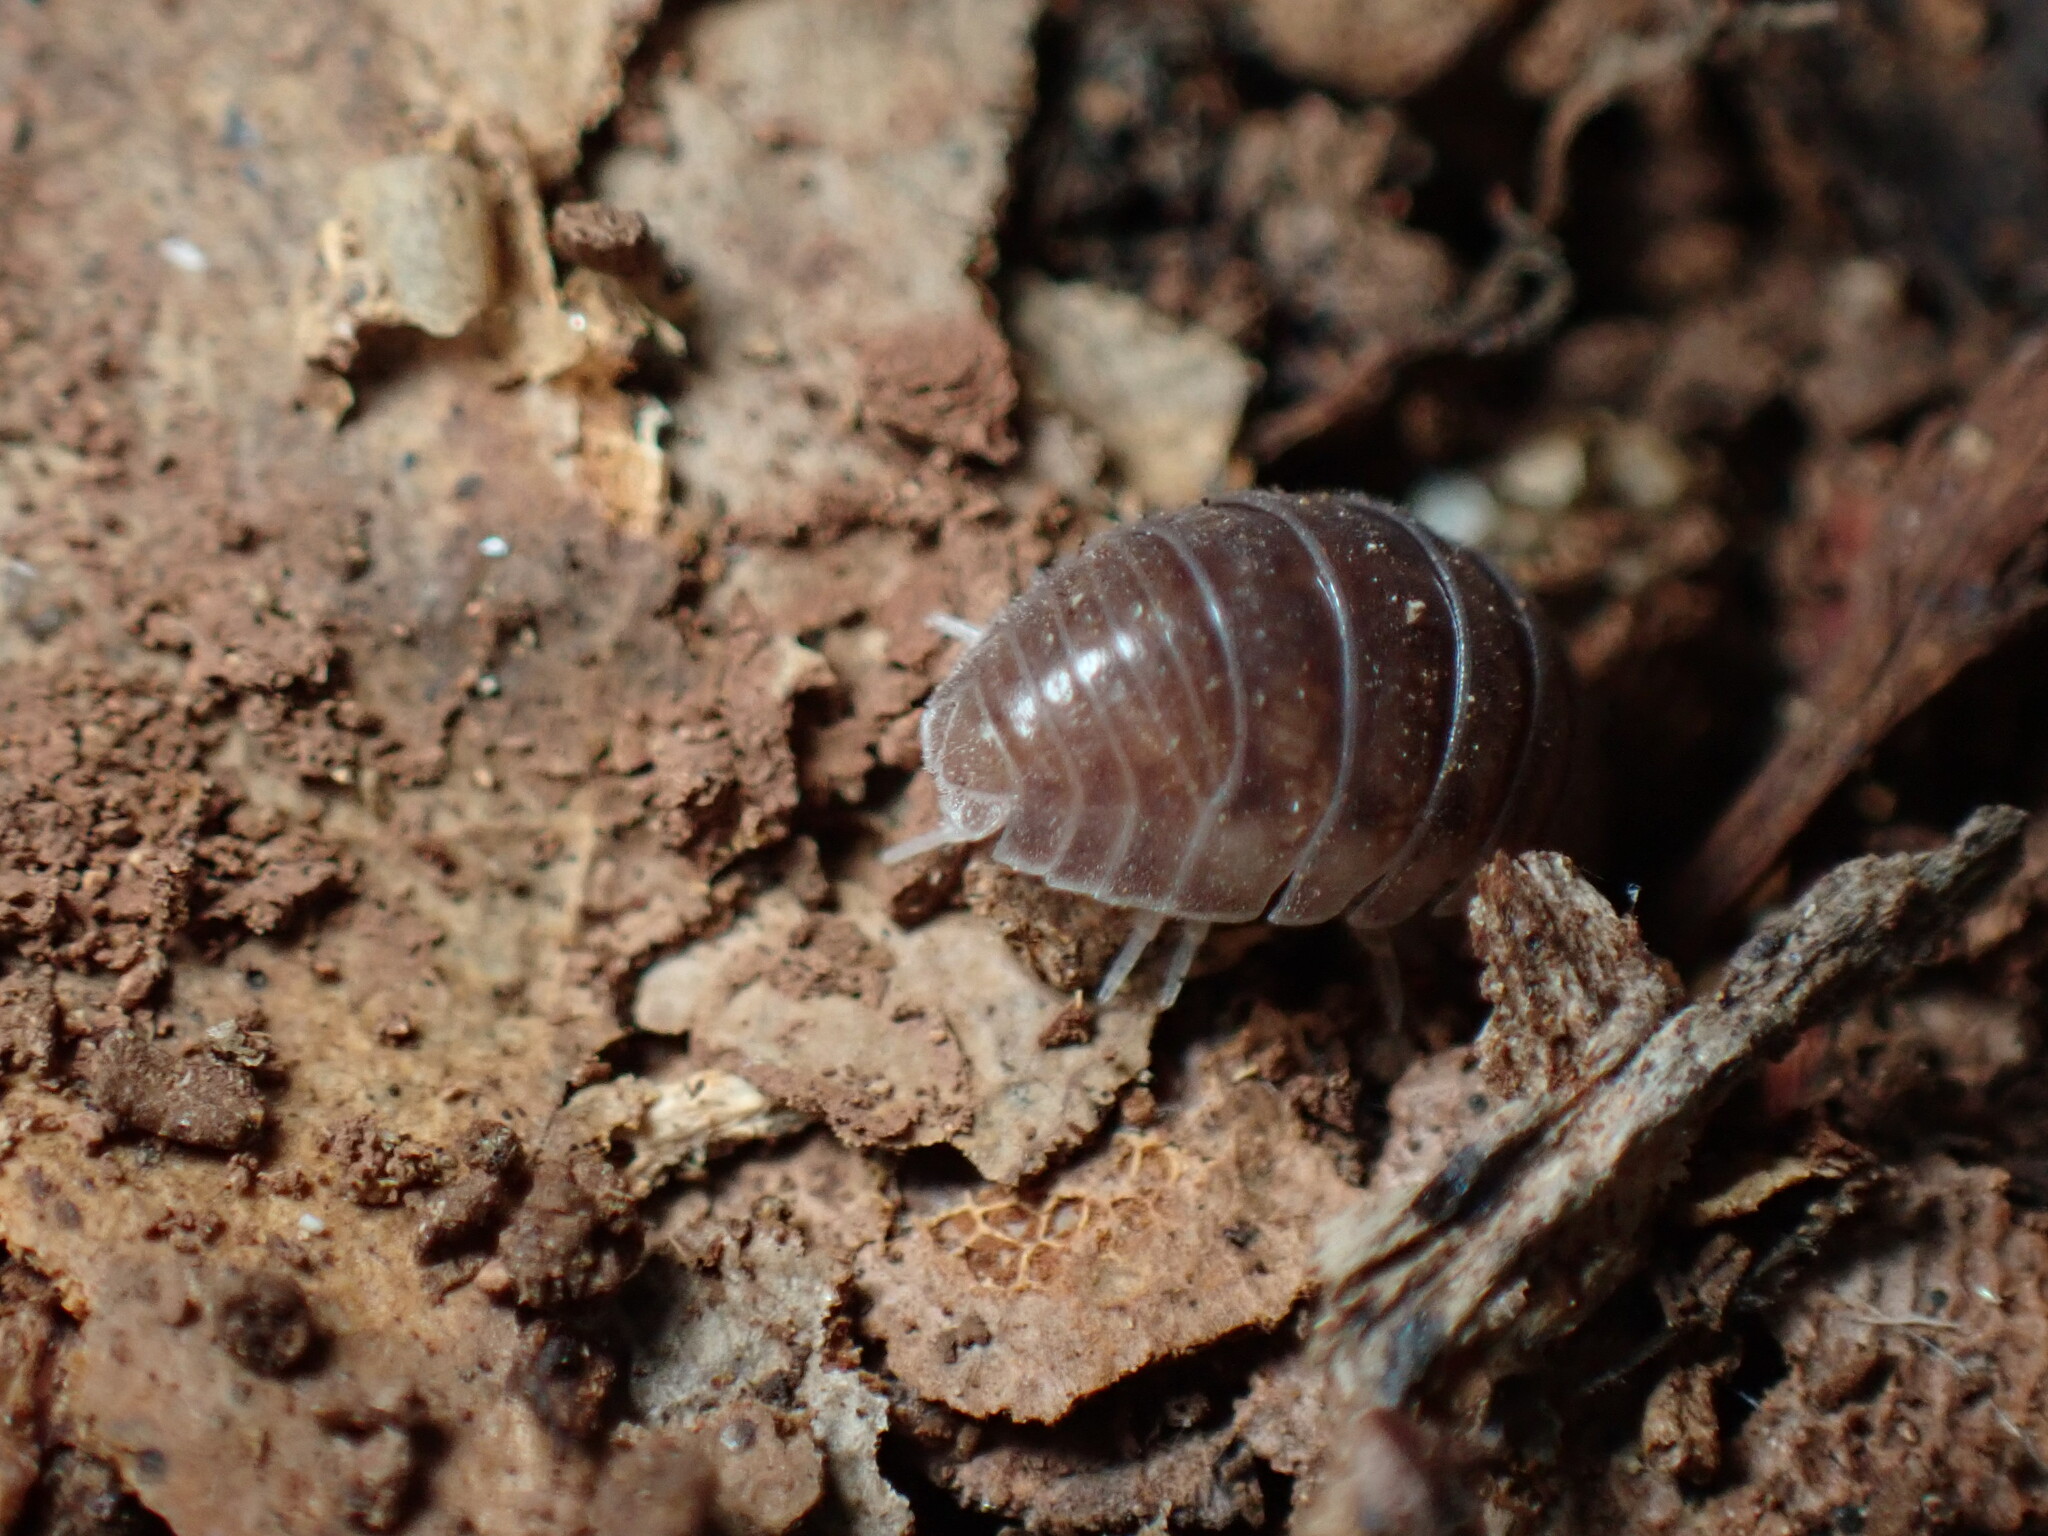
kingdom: Animalia
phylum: Arthropoda
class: Malacostraca
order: Isopoda
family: Armadillidiidae
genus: Eluma
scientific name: Eluma caelata
